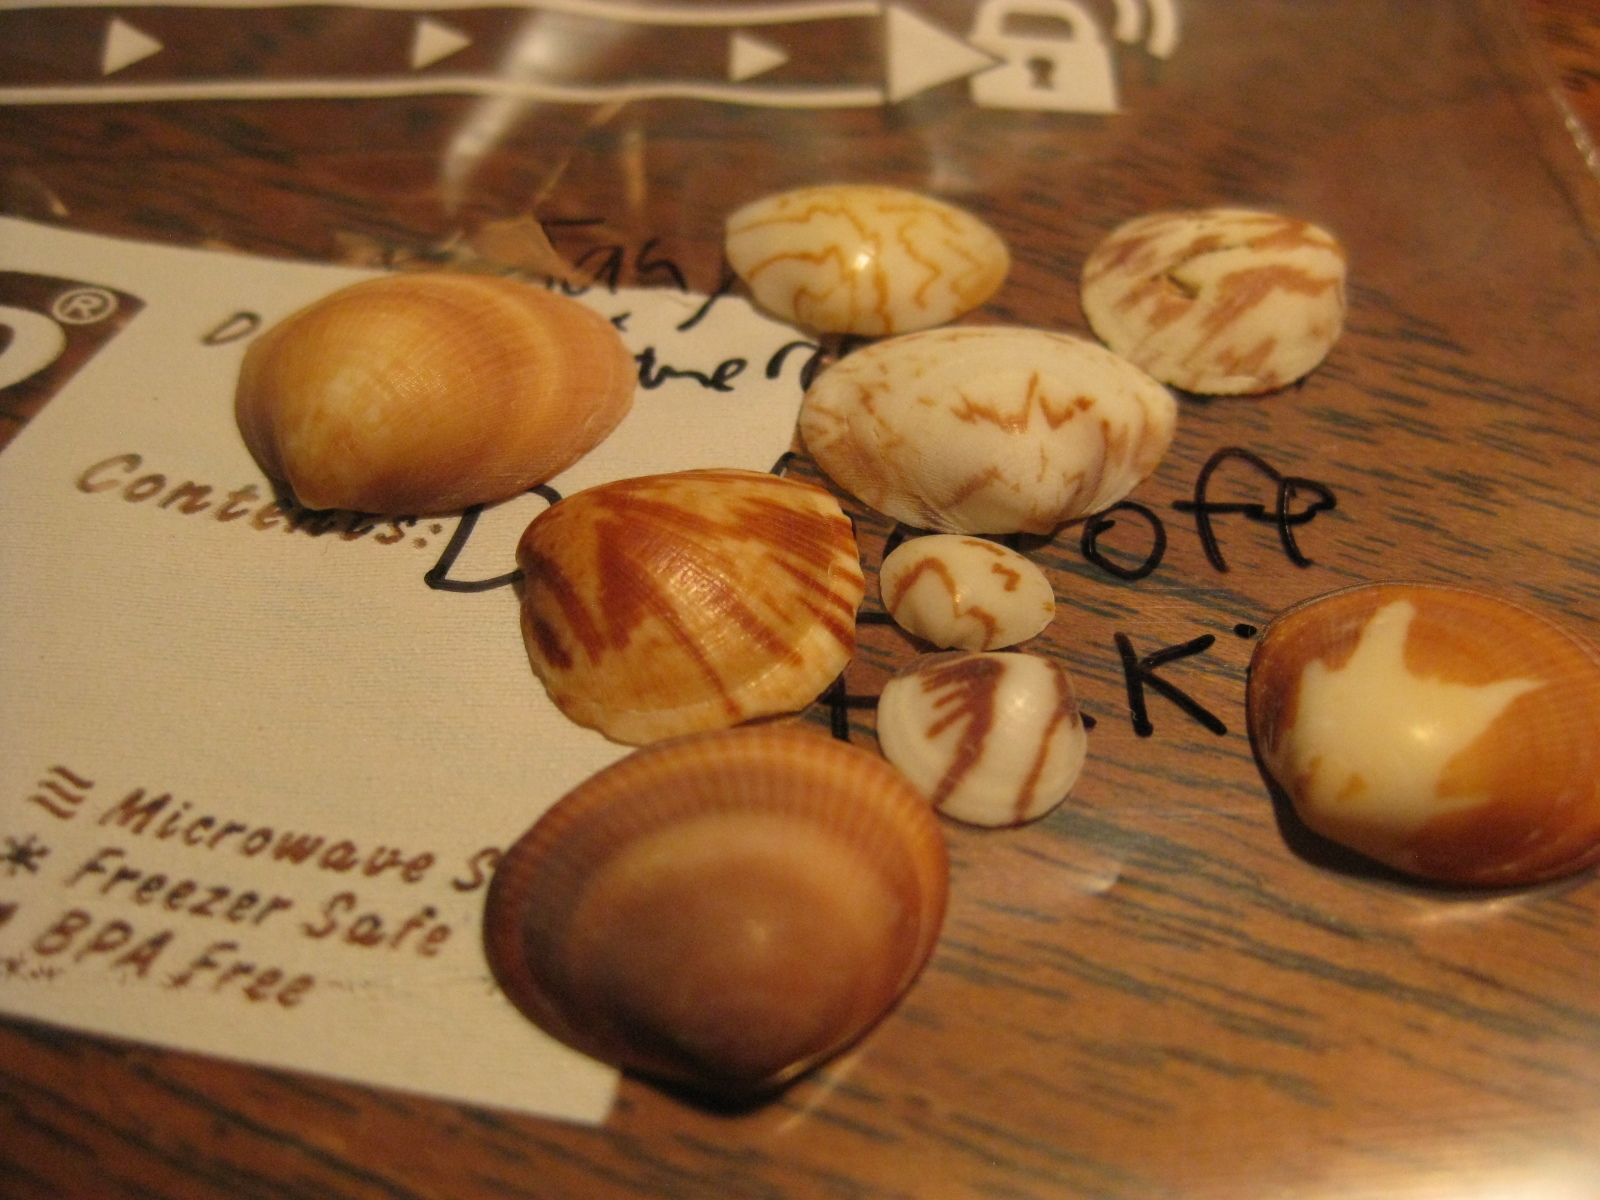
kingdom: Animalia
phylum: Mollusca
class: Bivalvia
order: Arcida
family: Glycymerididae
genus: Glycymeris
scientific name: Glycymeris modesta
